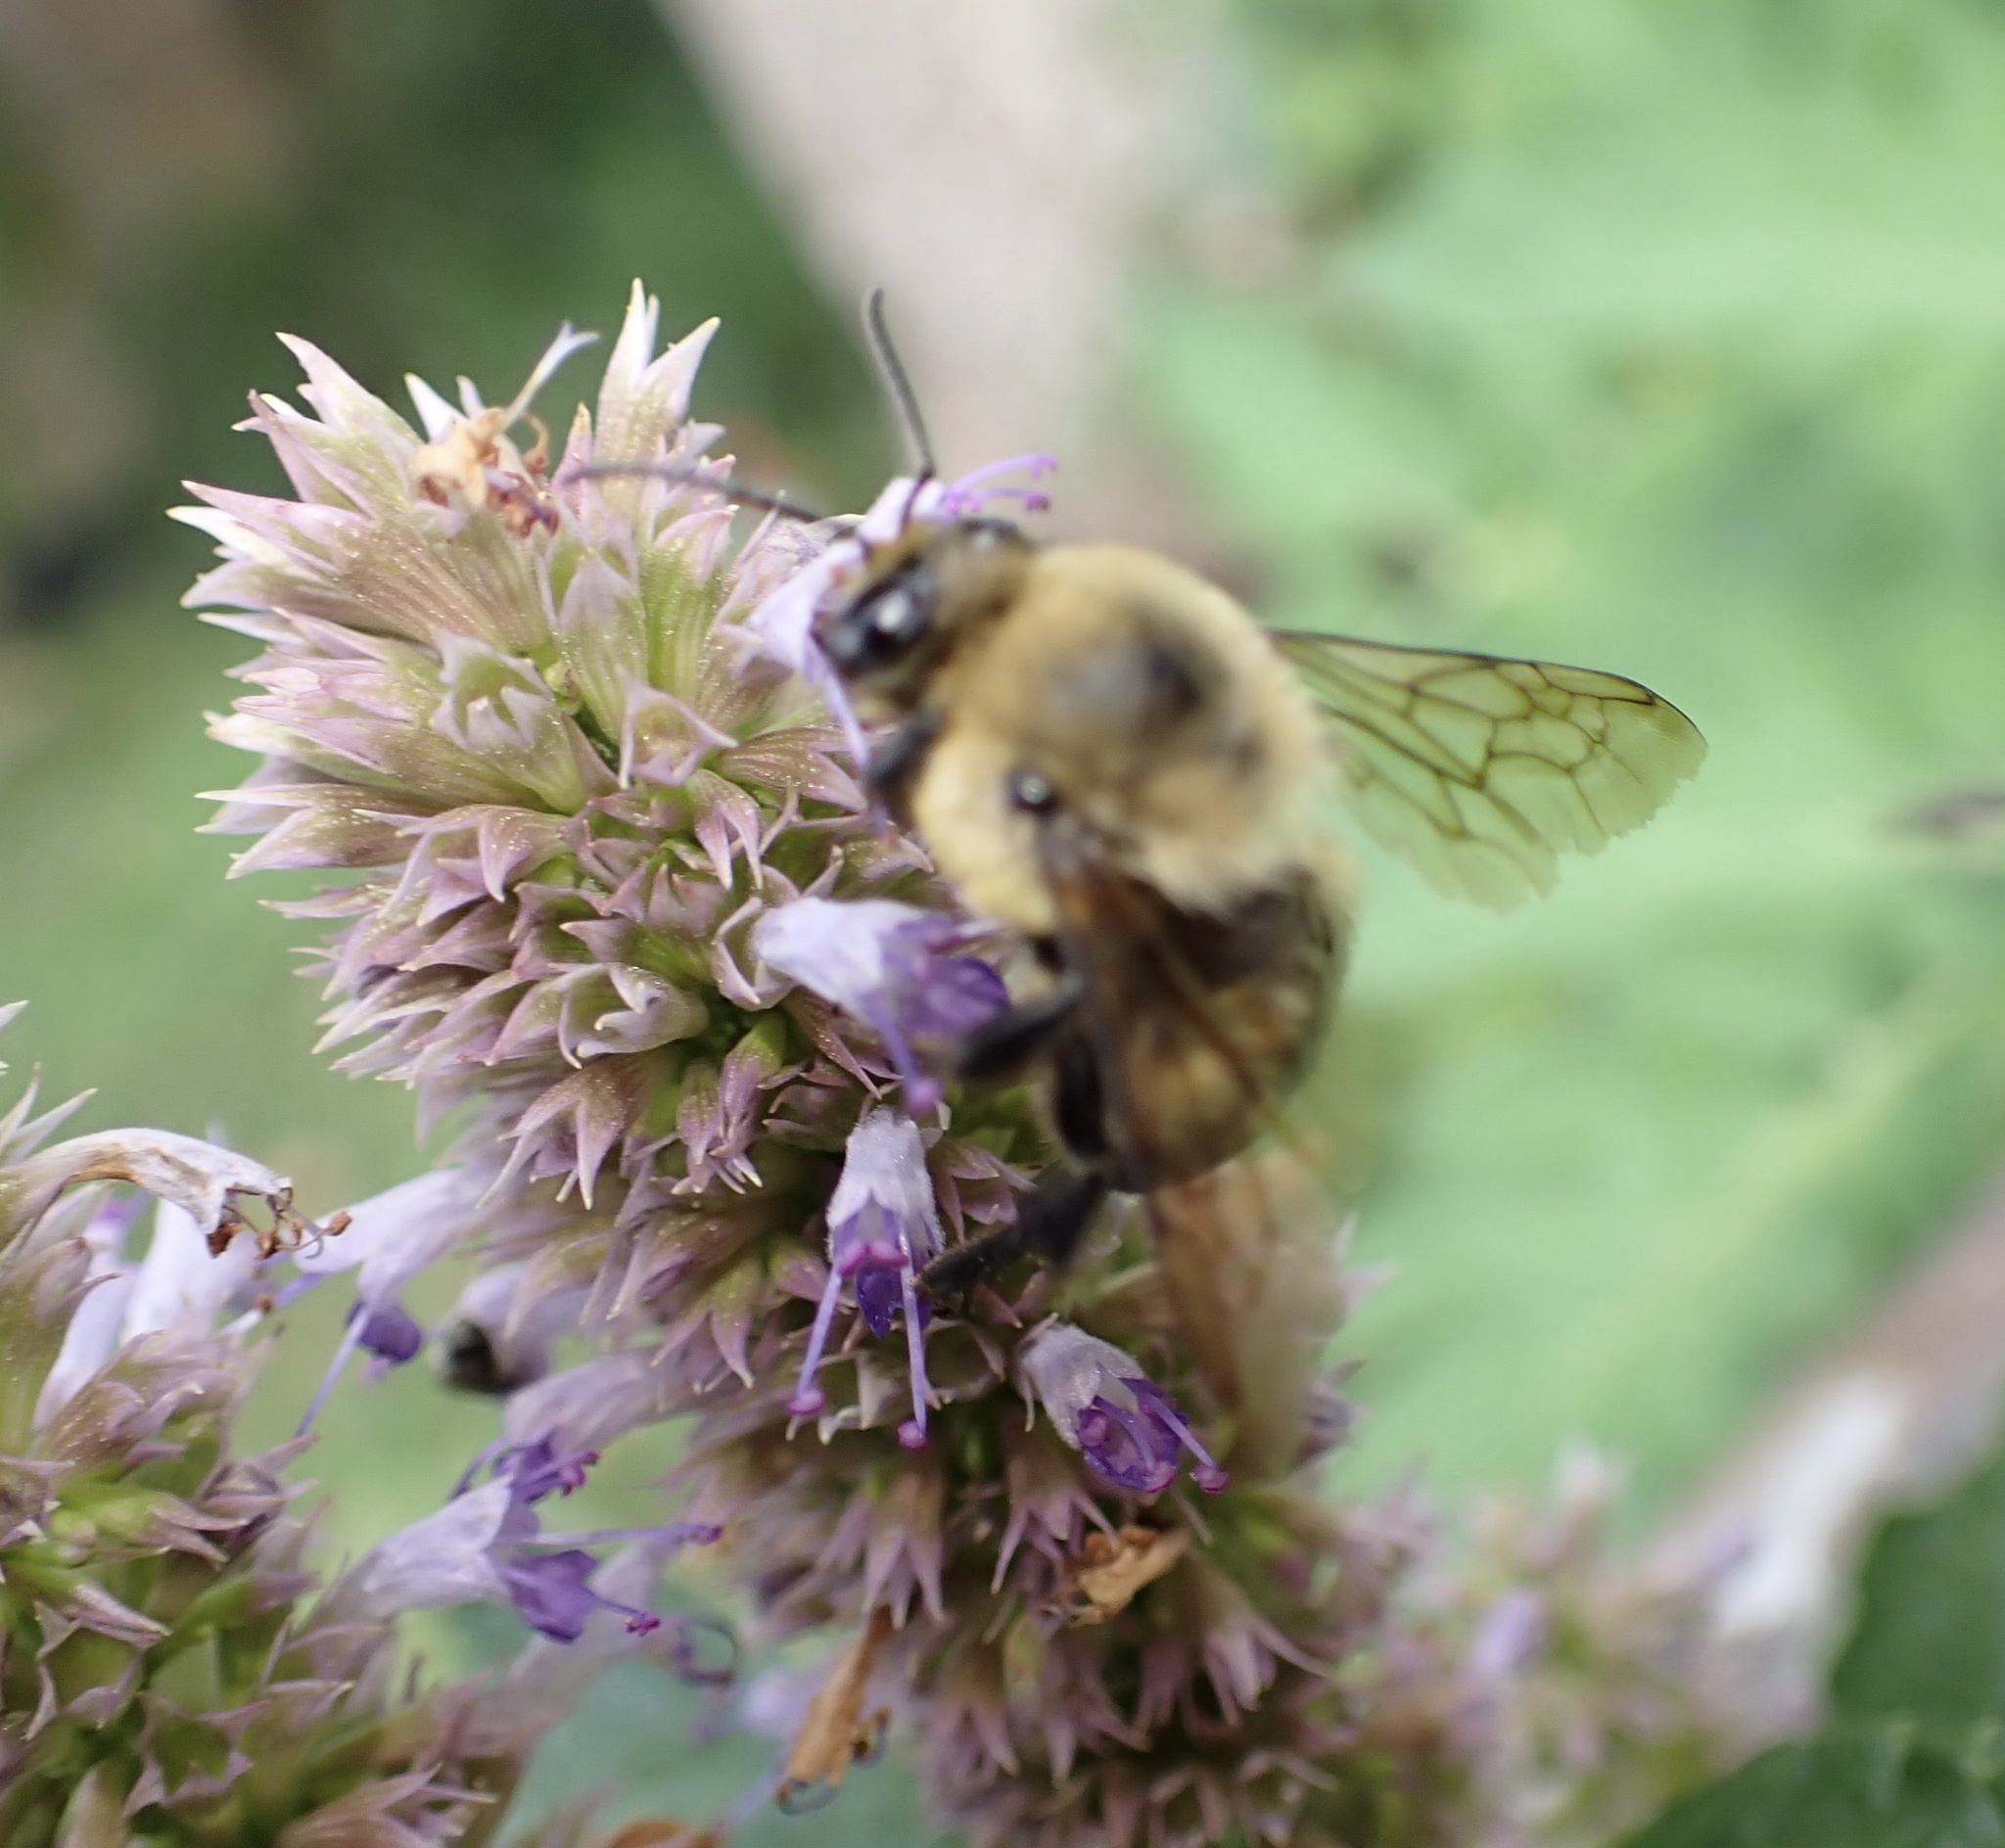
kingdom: Animalia
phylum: Arthropoda
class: Insecta
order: Hymenoptera
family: Apidae
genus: Bombus
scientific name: Bombus griseocollis
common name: Brown-belted bumble bee
